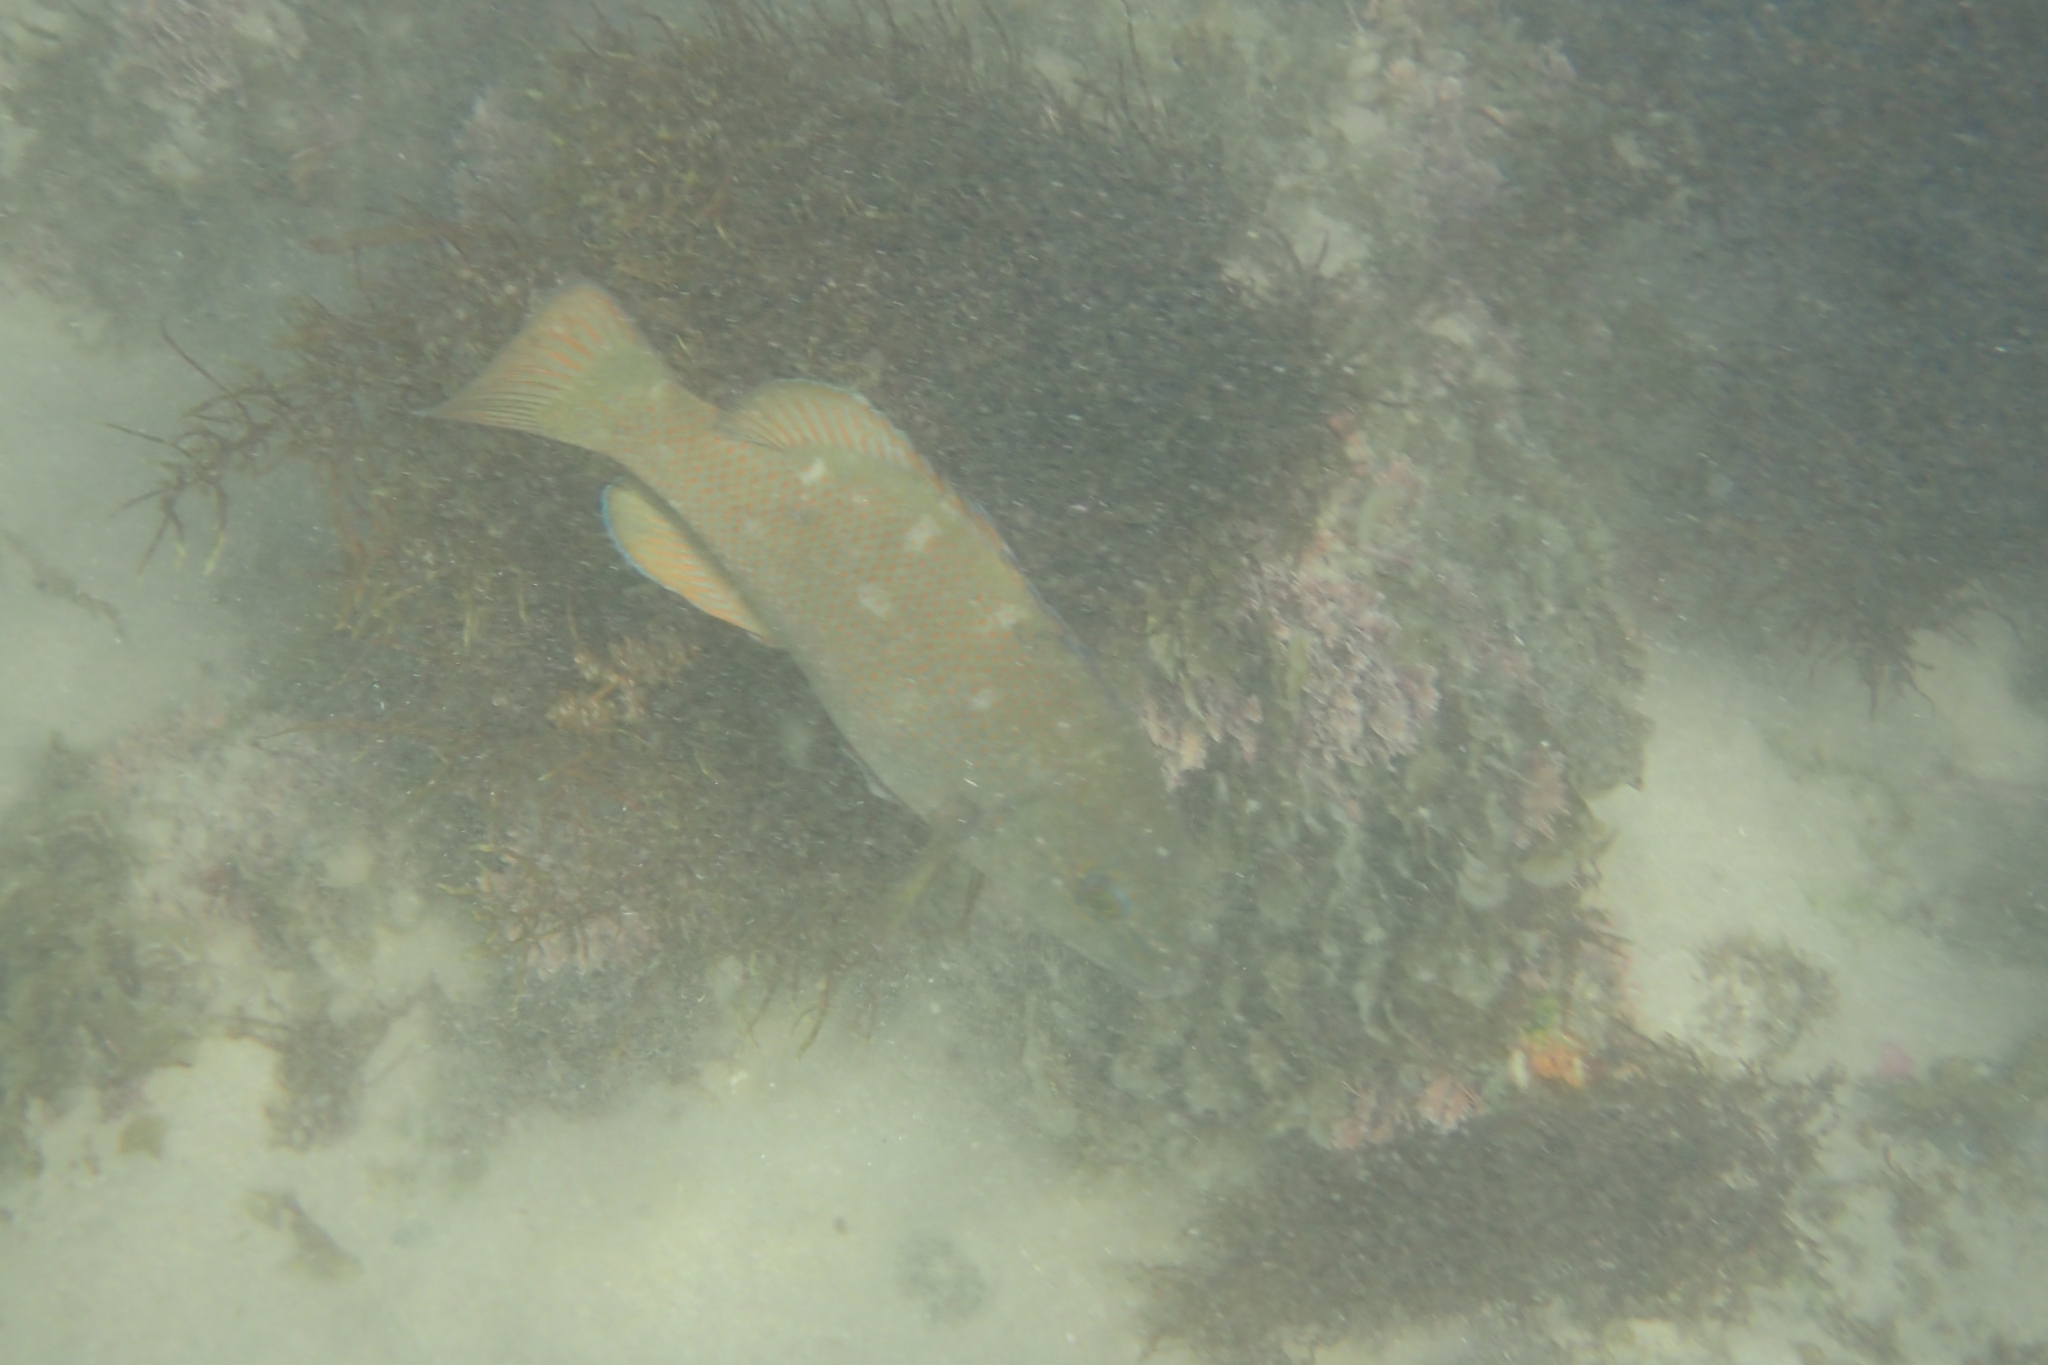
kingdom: Animalia
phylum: Chordata
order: Perciformes
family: Labridae
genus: Achoerodus
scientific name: Achoerodus viridis
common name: Brown groper
